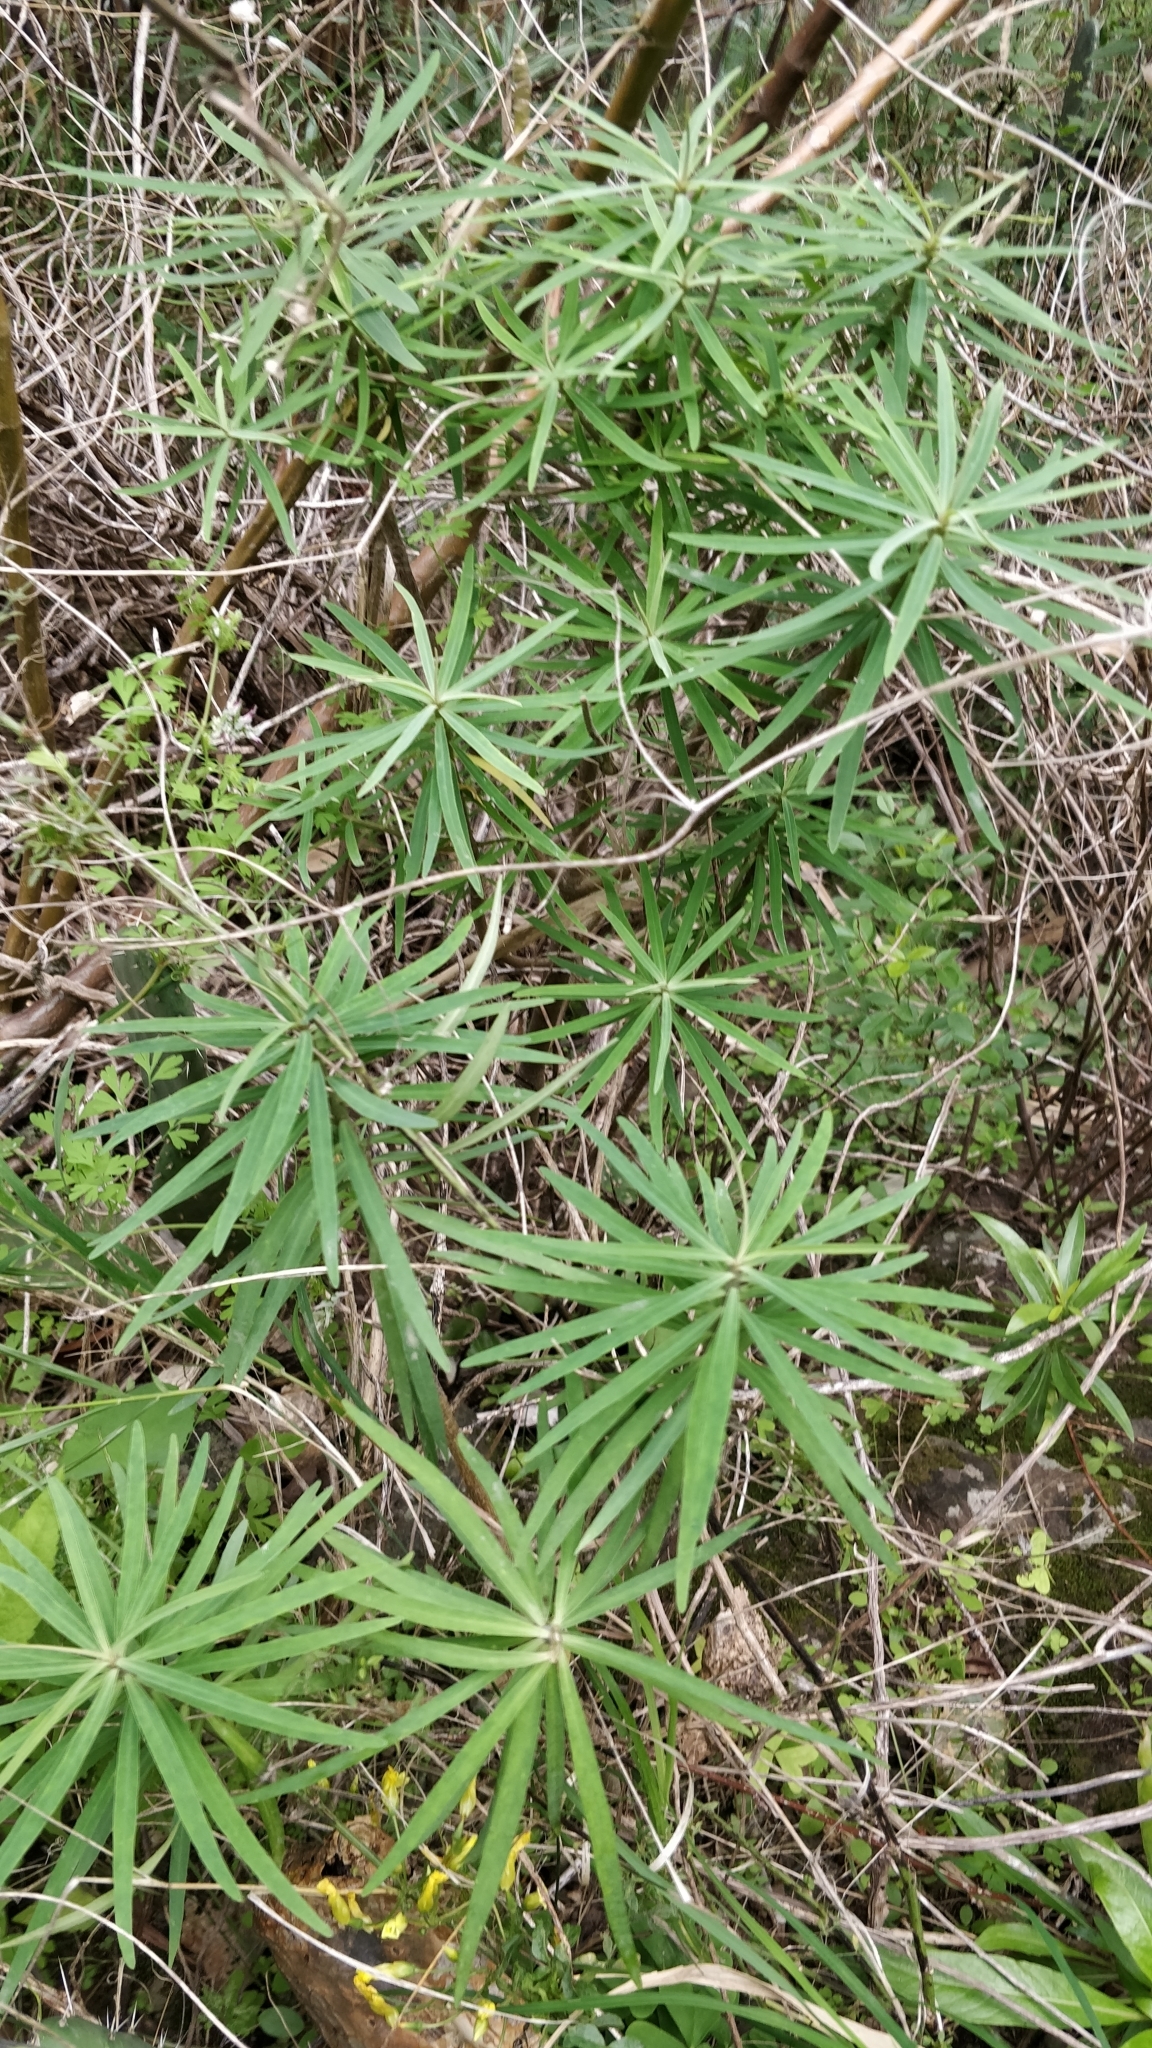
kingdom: Plantae
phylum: Tracheophyta
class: Magnoliopsida
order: Malpighiales
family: Euphorbiaceae
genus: Euphorbia
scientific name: Euphorbia piscatoria
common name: Fish-stunning spurge
